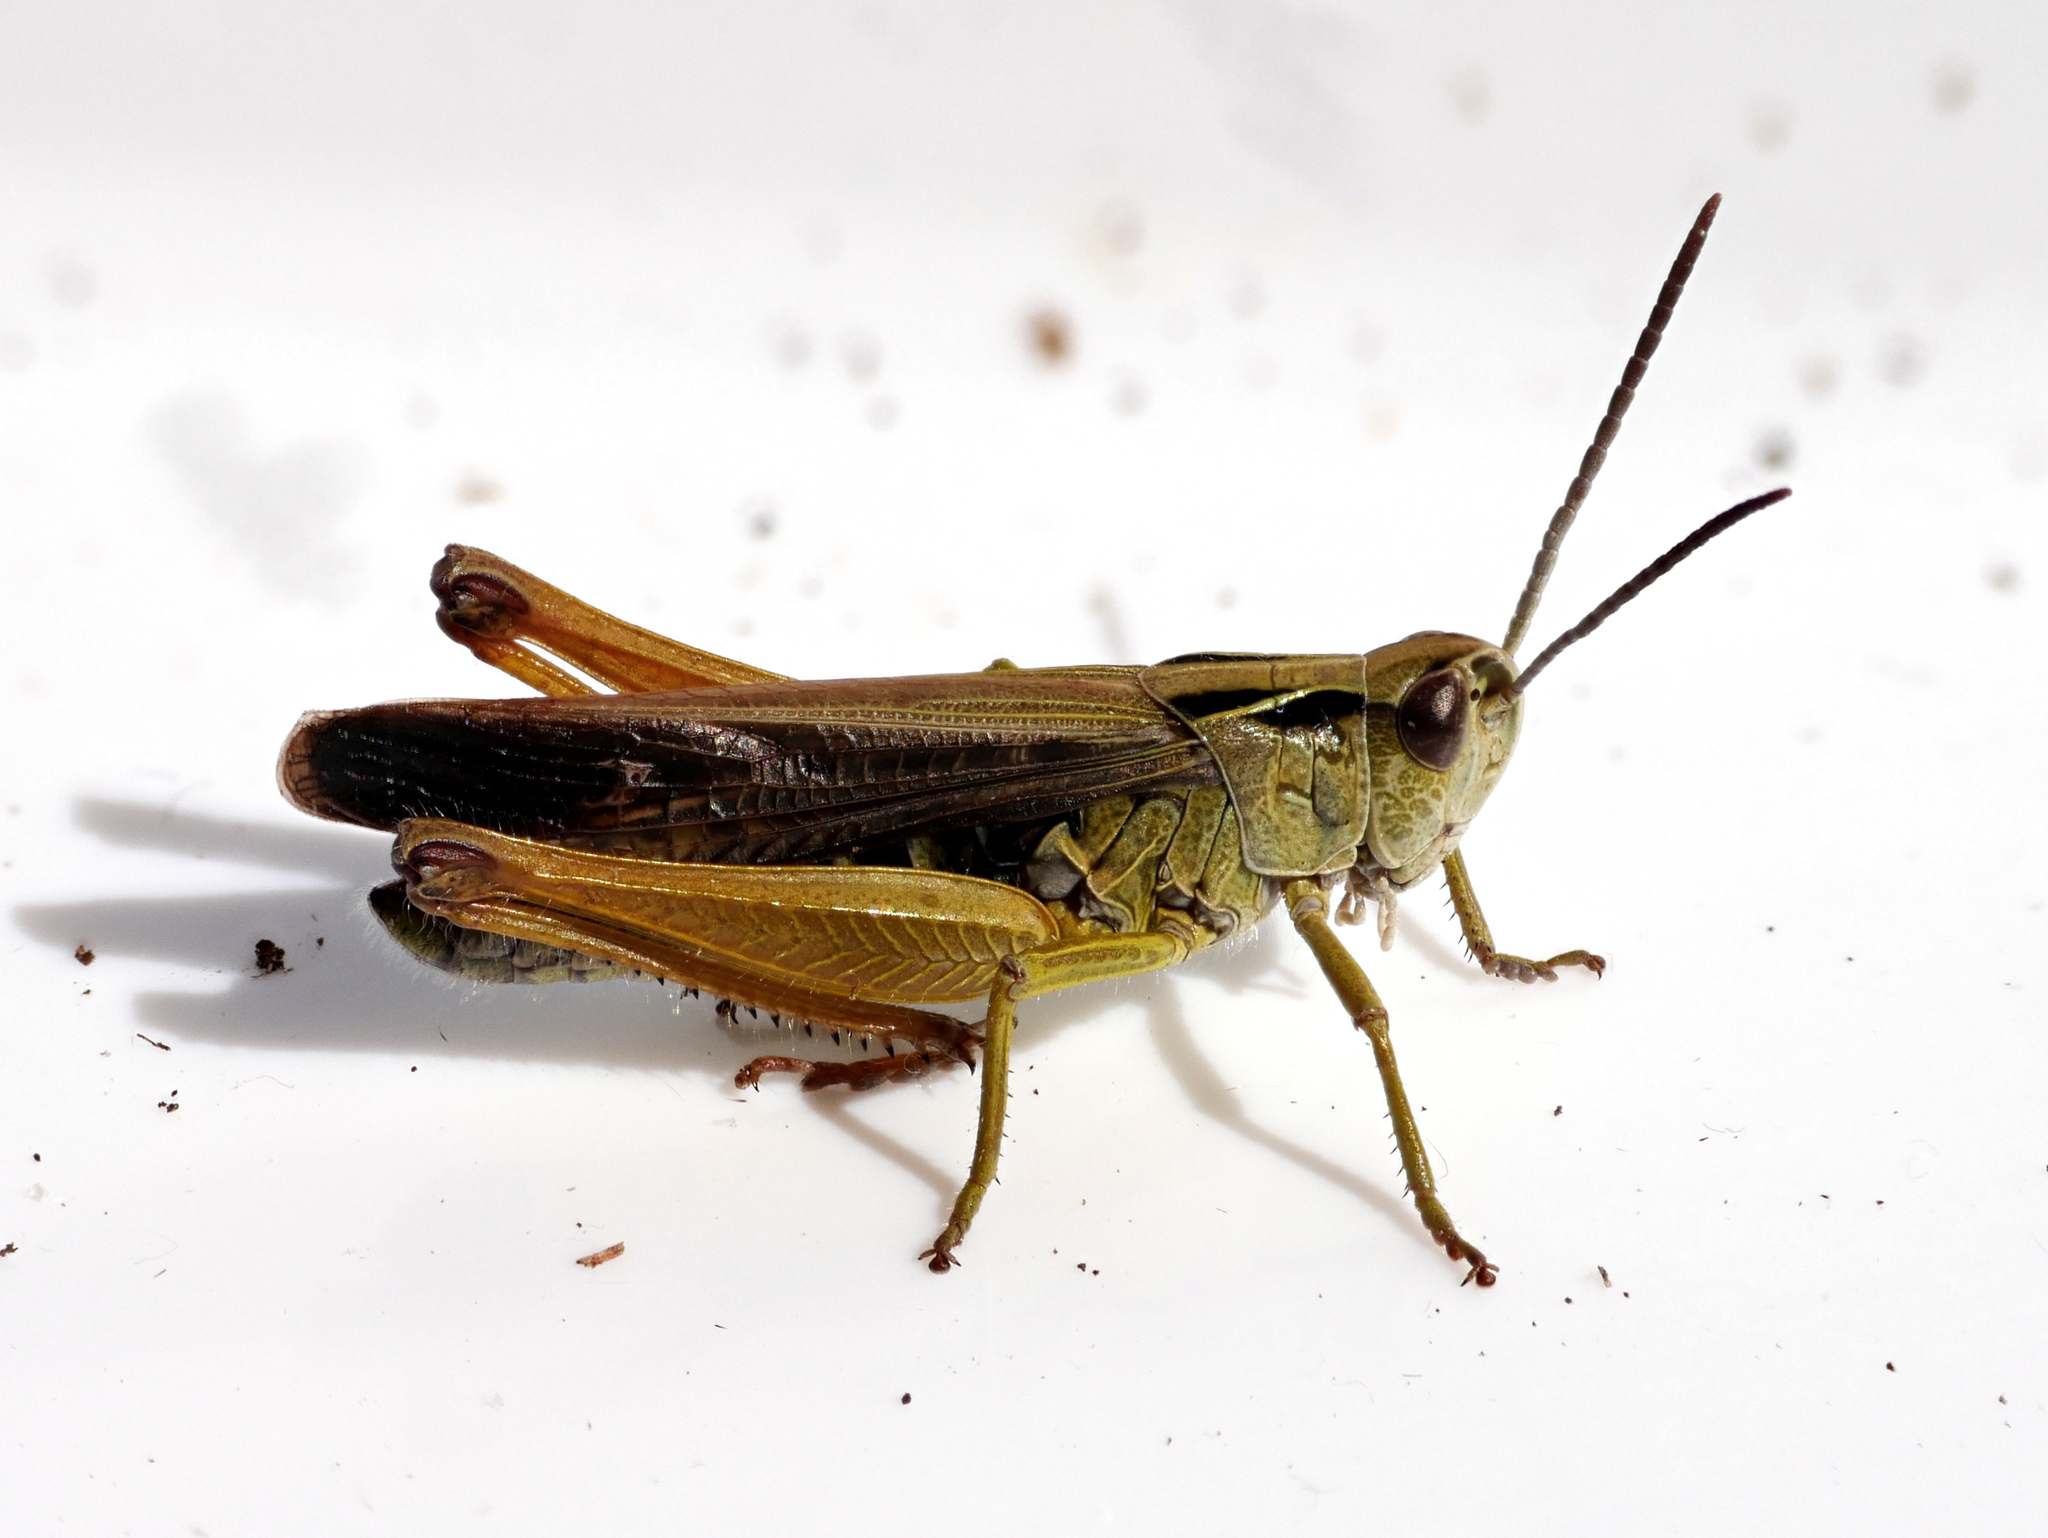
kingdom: Animalia
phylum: Arthropoda
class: Insecta
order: Orthoptera
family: Acrididae
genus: Omocestus
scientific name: Omocestus viridulus
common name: Common green grasshopper
